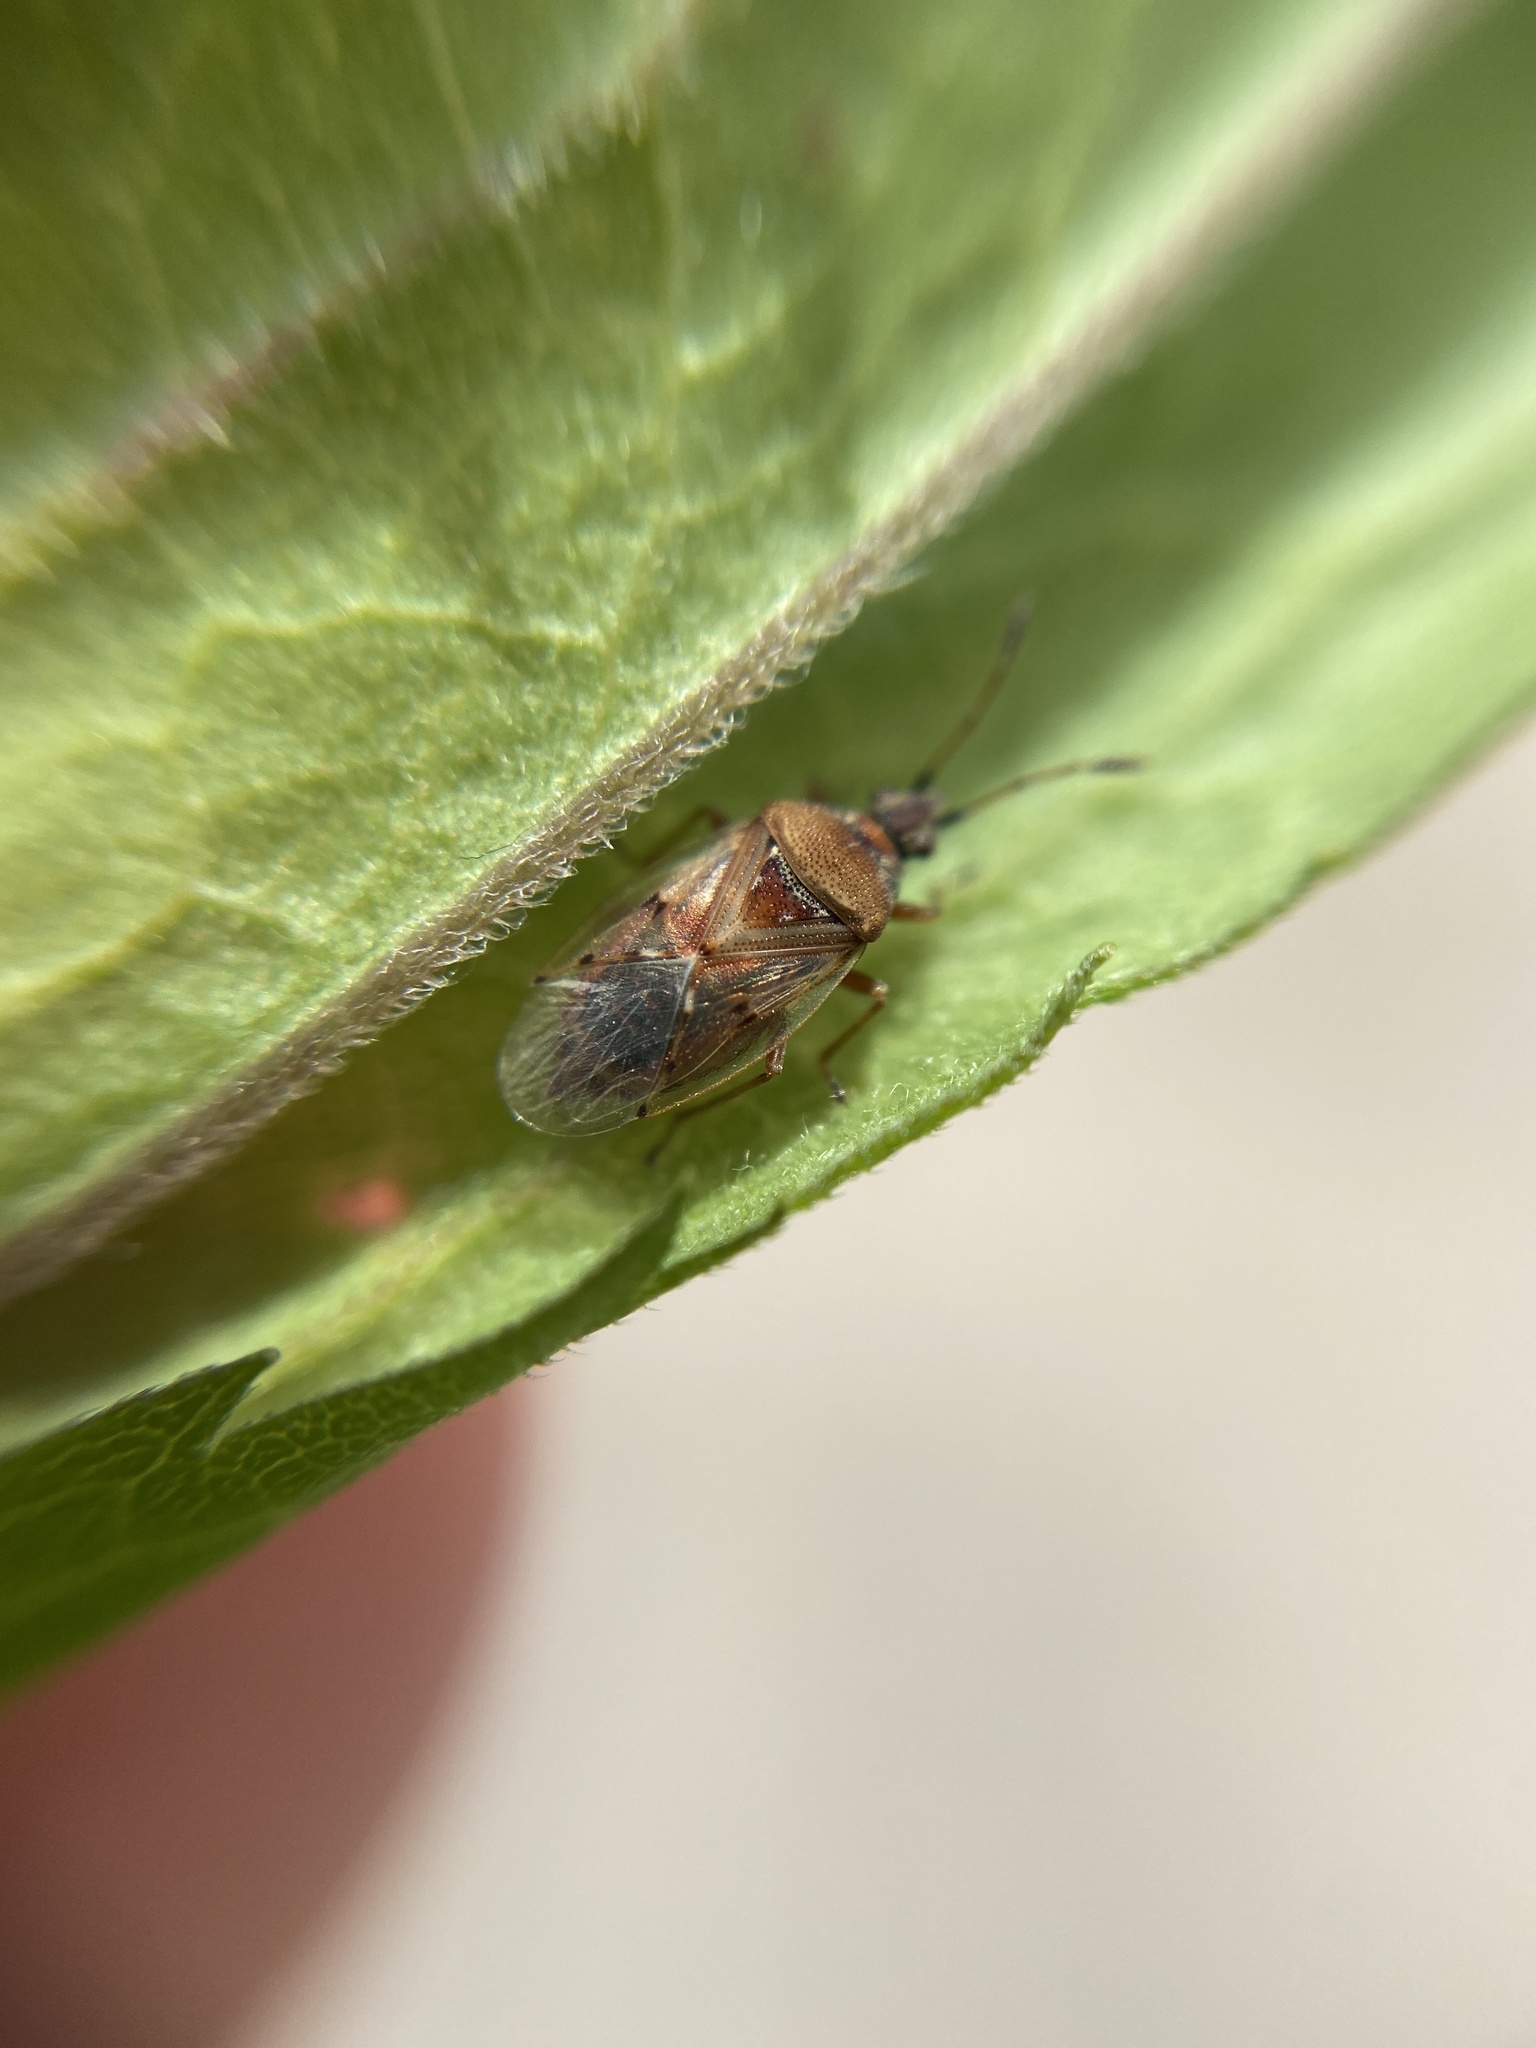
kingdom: Animalia
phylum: Arthropoda
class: Insecta
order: Hemiptera
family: Lygaeidae
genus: Kleidocerys
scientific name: Kleidocerys resedae
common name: Birch catkin bug
